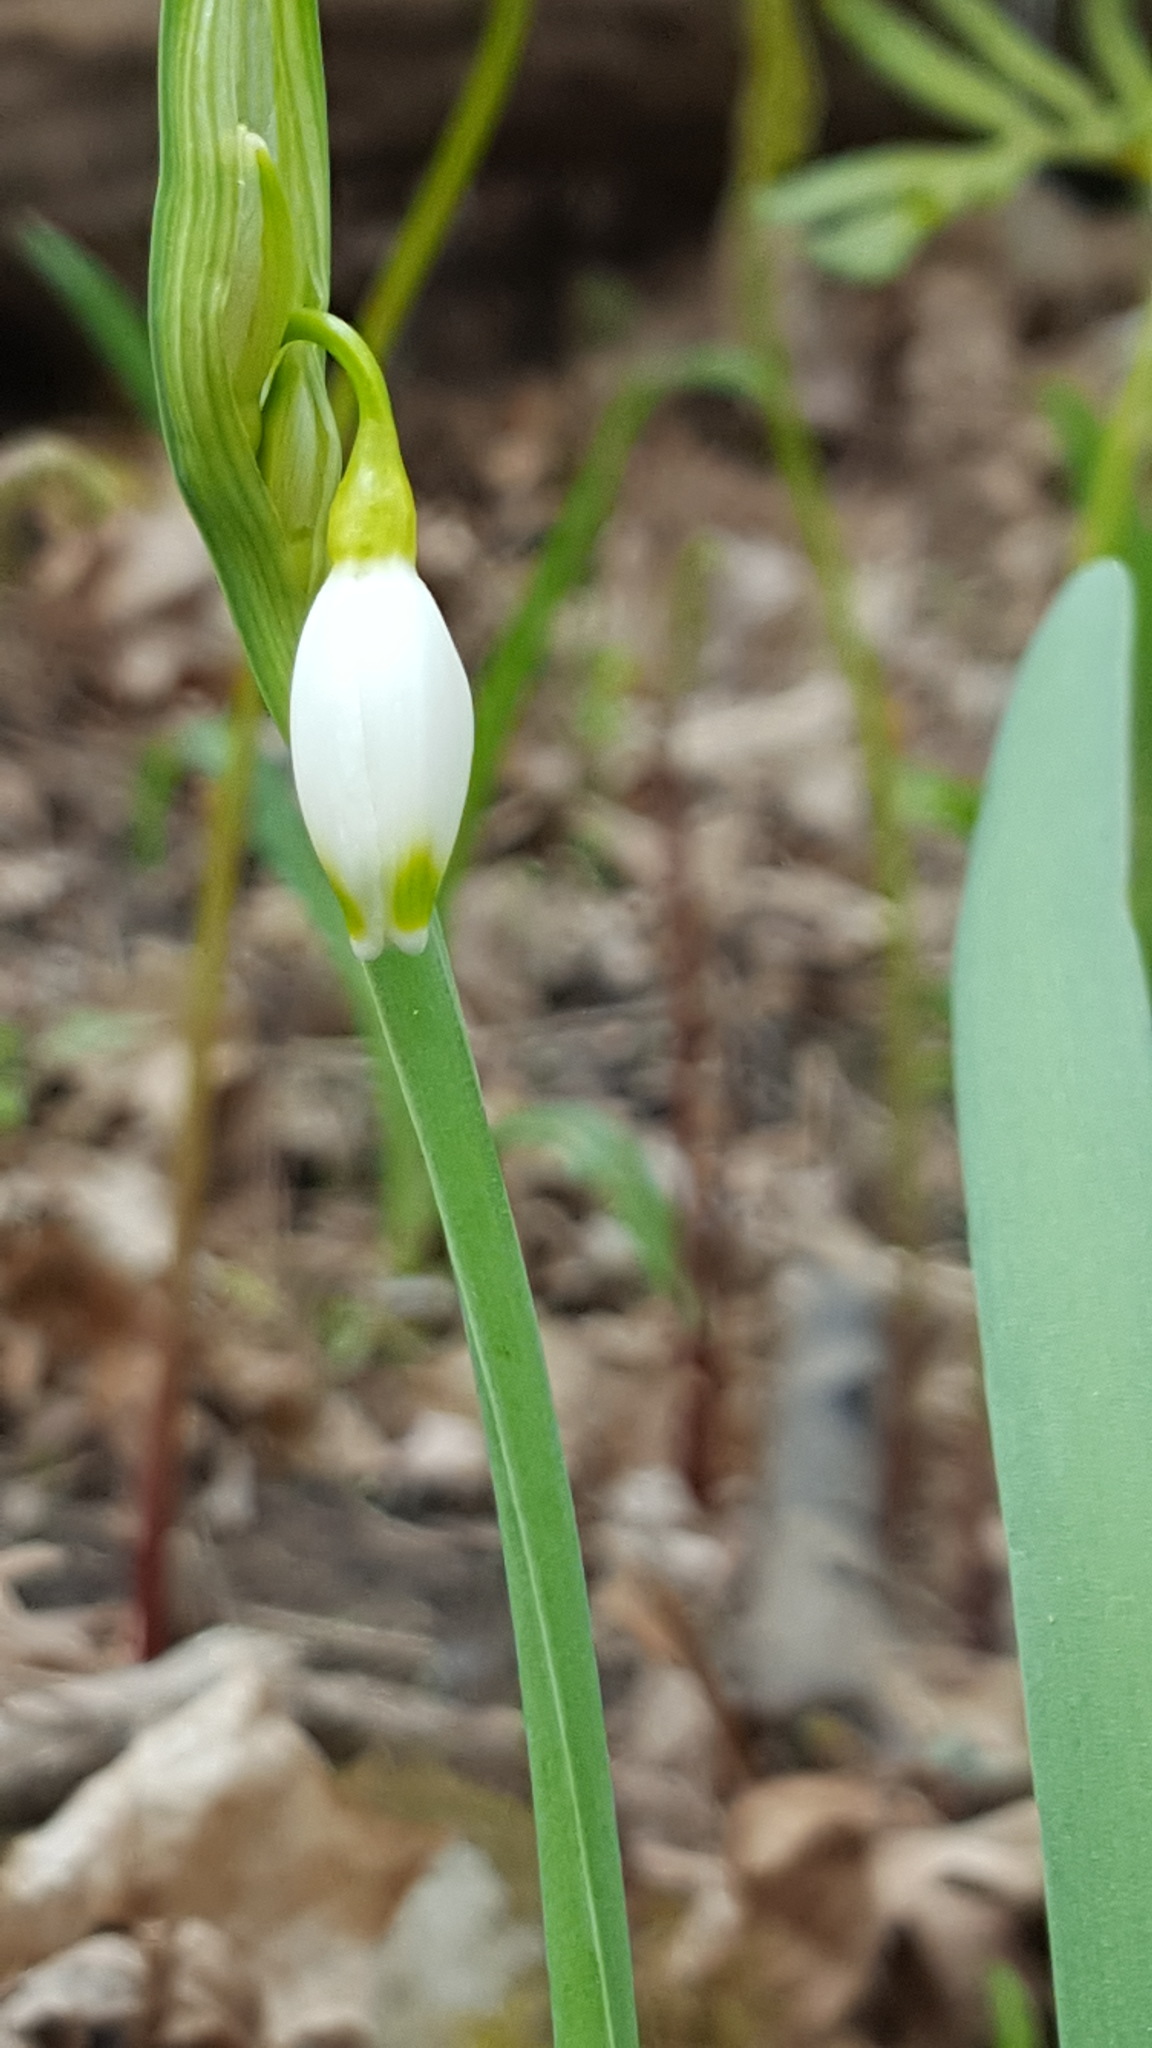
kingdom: Plantae
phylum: Tracheophyta
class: Liliopsida
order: Asparagales
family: Amaryllidaceae
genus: Leucojum
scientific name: Leucojum aestivum
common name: Summer snowflake
